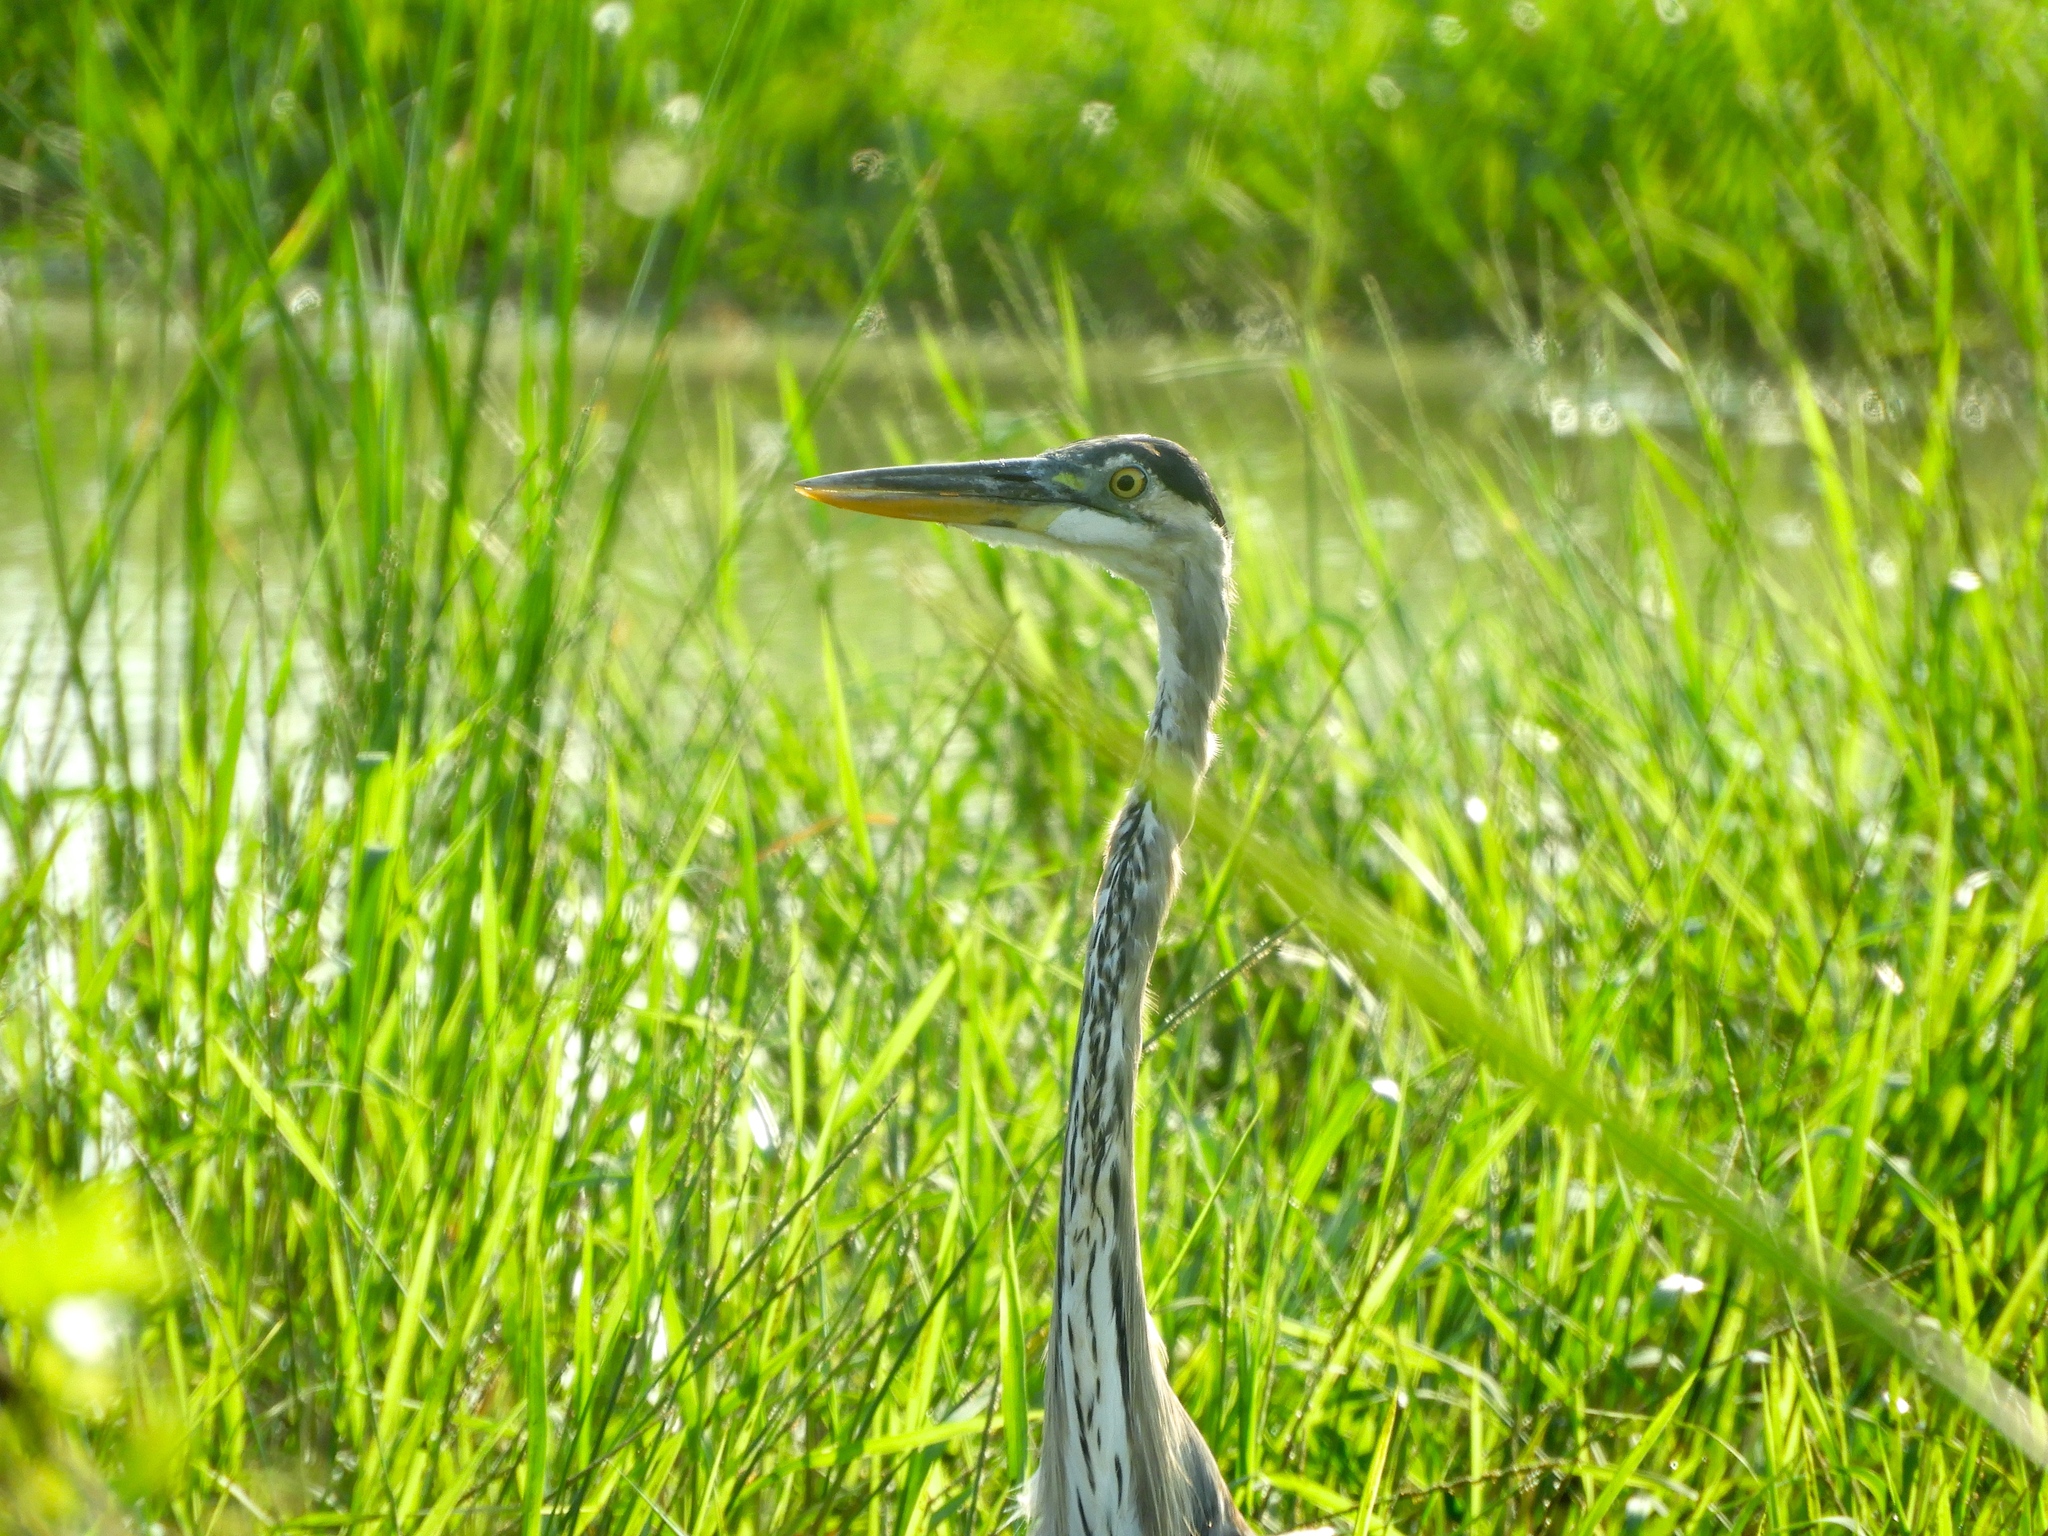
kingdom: Animalia
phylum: Chordata
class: Aves
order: Pelecaniformes
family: Ardeidae
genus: Ardea
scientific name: Ardea herodias
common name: Great blue heron
